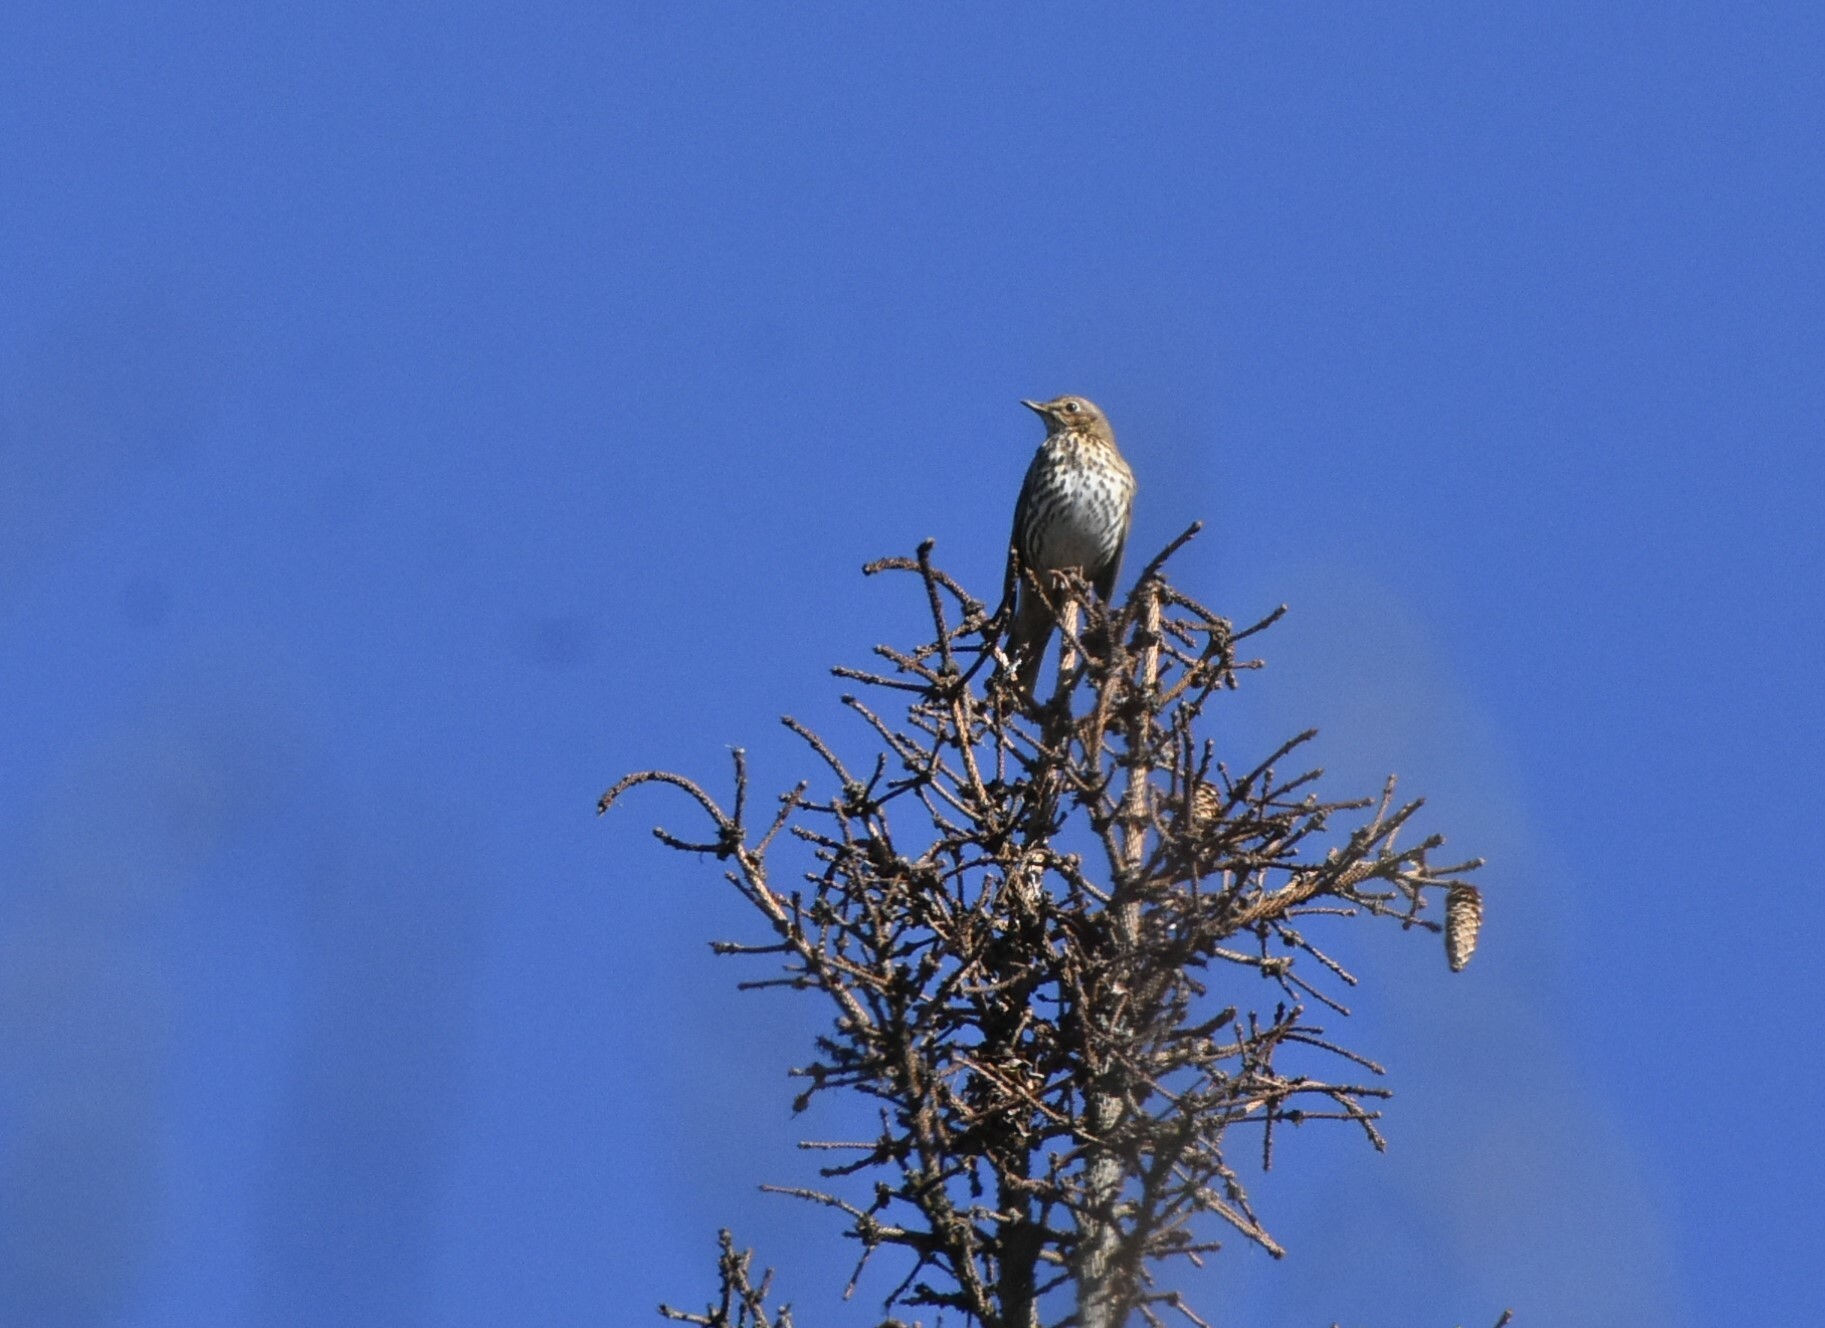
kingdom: Animalia
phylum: Chordata
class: Aves
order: Passeriformes
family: Turdidae
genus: Turdus
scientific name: Turdus philomelos
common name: Song thrush
